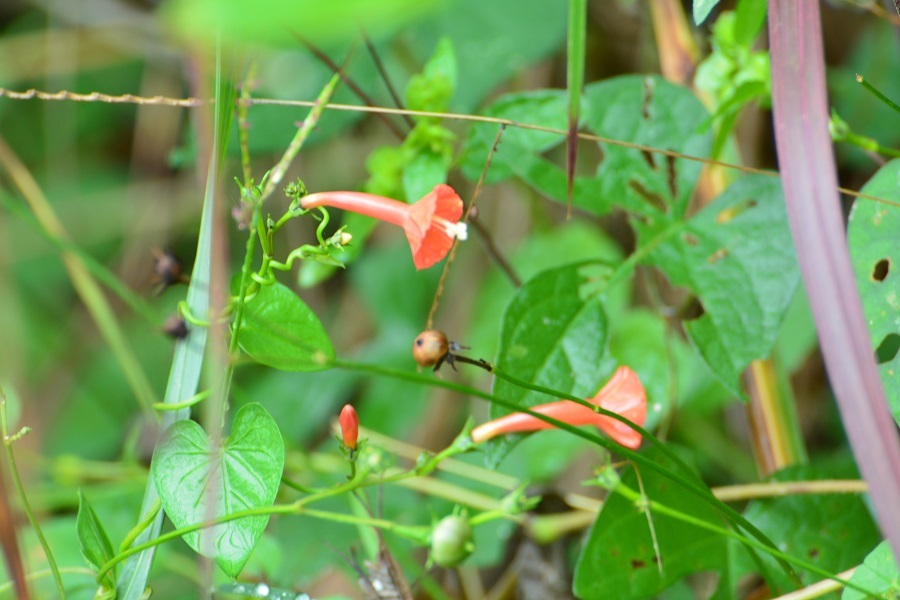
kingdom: Plantae
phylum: Tracheophyta
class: Magnoliopsida
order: Solanales
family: Convolvulaceae
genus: Ipomoea
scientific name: Ipomoea hederifolia
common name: Ivy-leaf morning-glory
